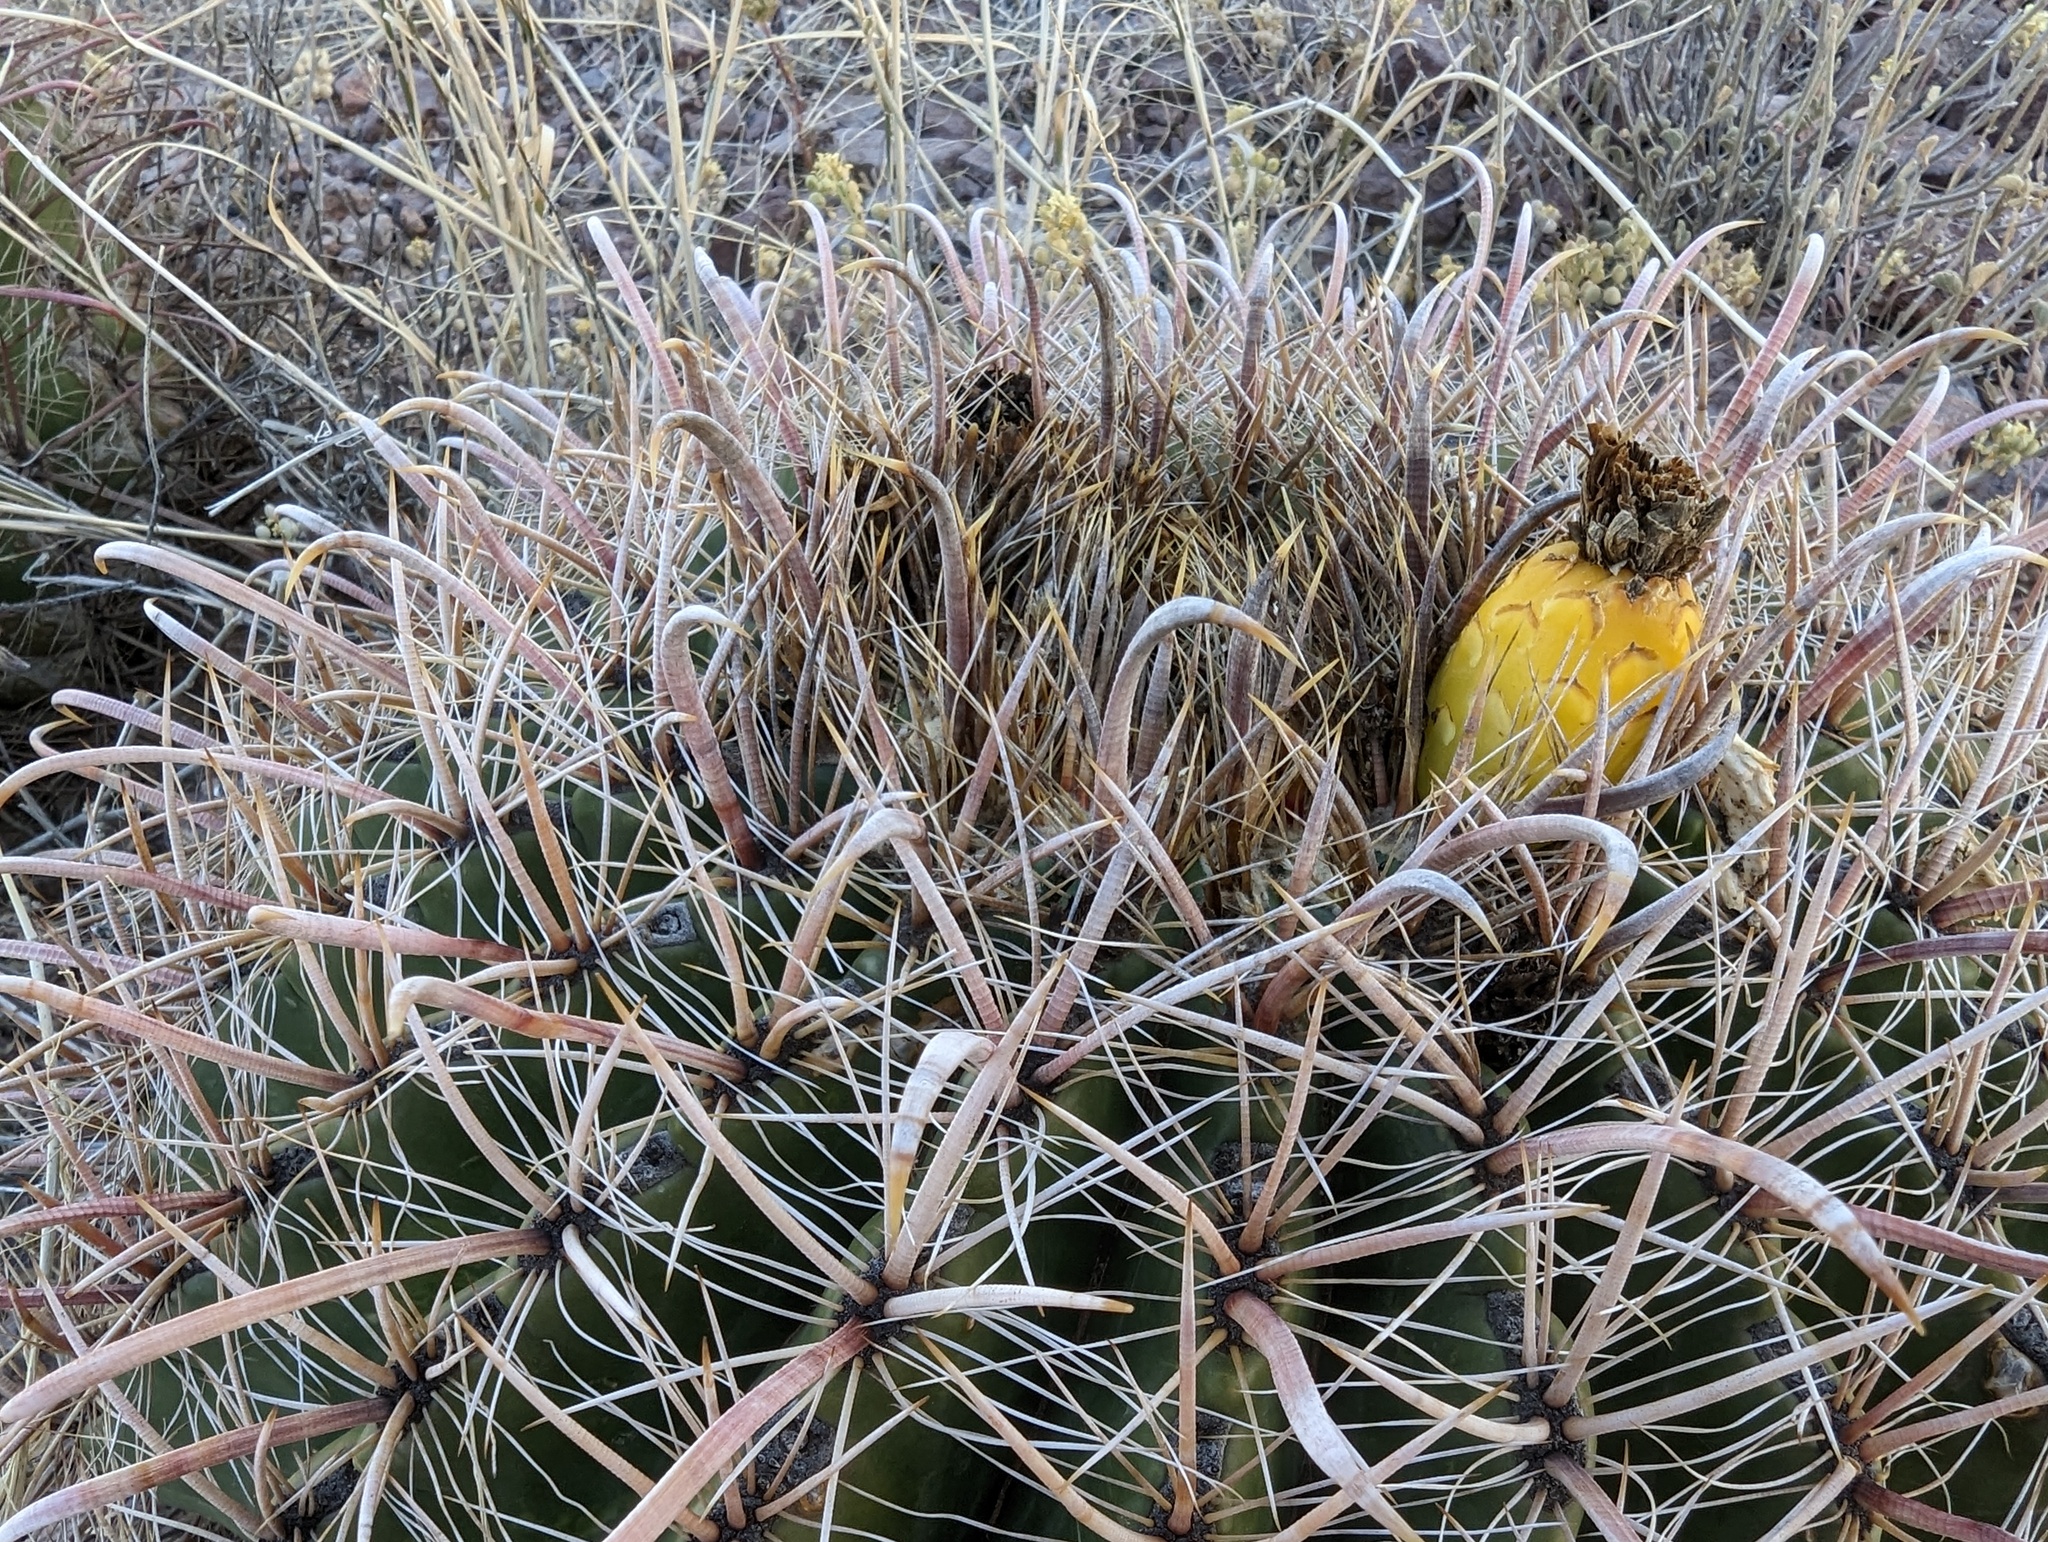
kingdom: Plantae
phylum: Tracheophyta
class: Magnoliopsida
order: Caryophyllales
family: Cactaceae
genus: Ferocactus
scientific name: Ferocactus wislizeni
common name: Candy barrel cactus
